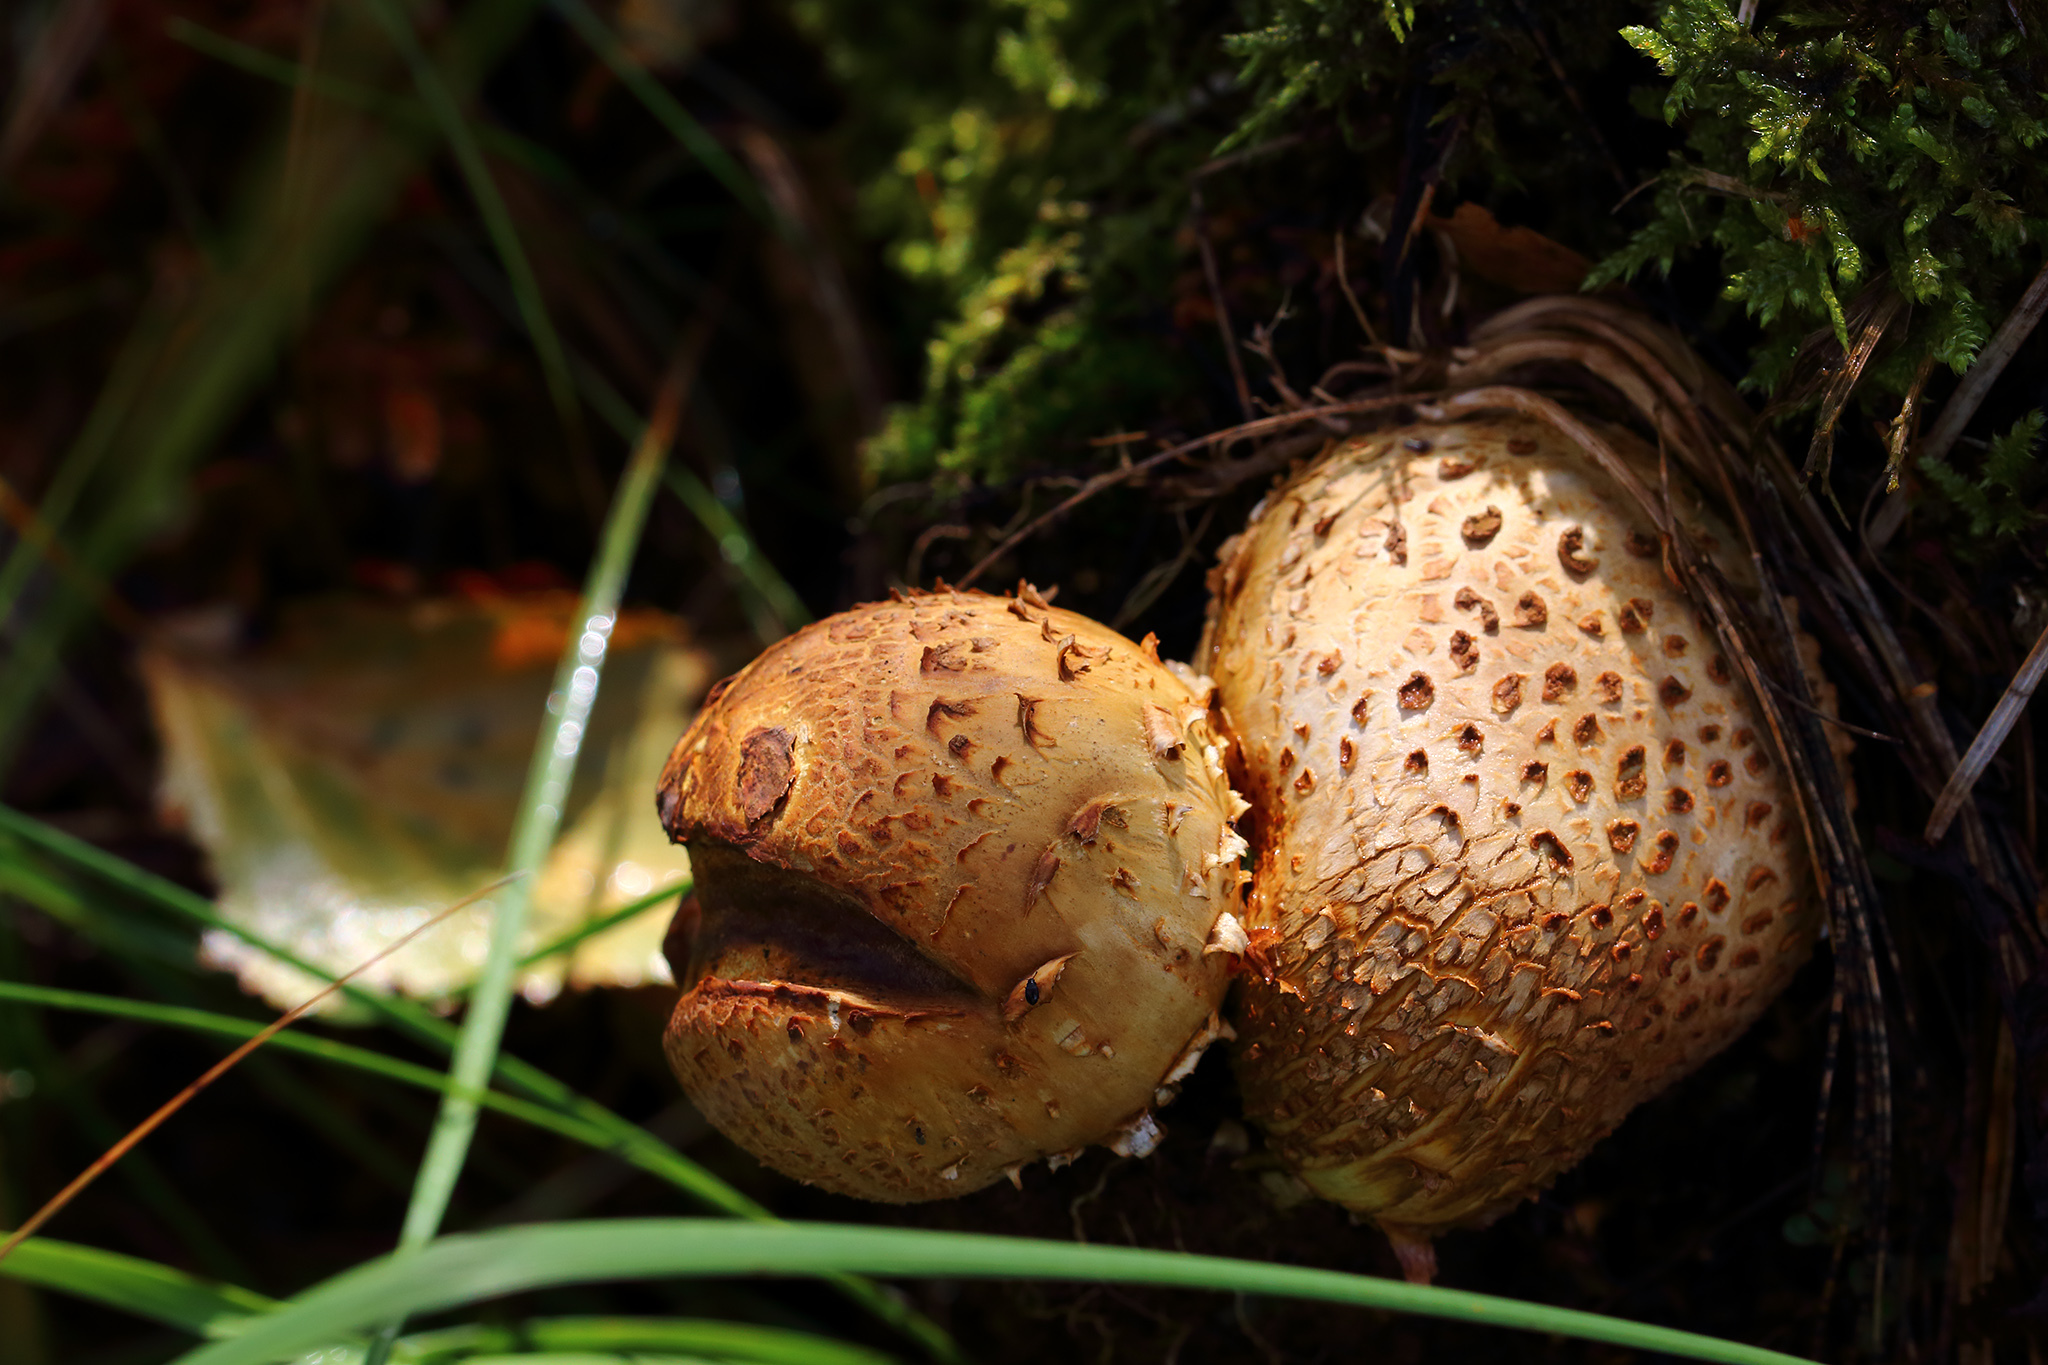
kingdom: Fungi
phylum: Basidiomycota
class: Agaricomycetes
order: Agaricales
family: Strophariaceae
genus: Pholiota
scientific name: Pholiota squarrosa
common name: Shaggy pholiota
